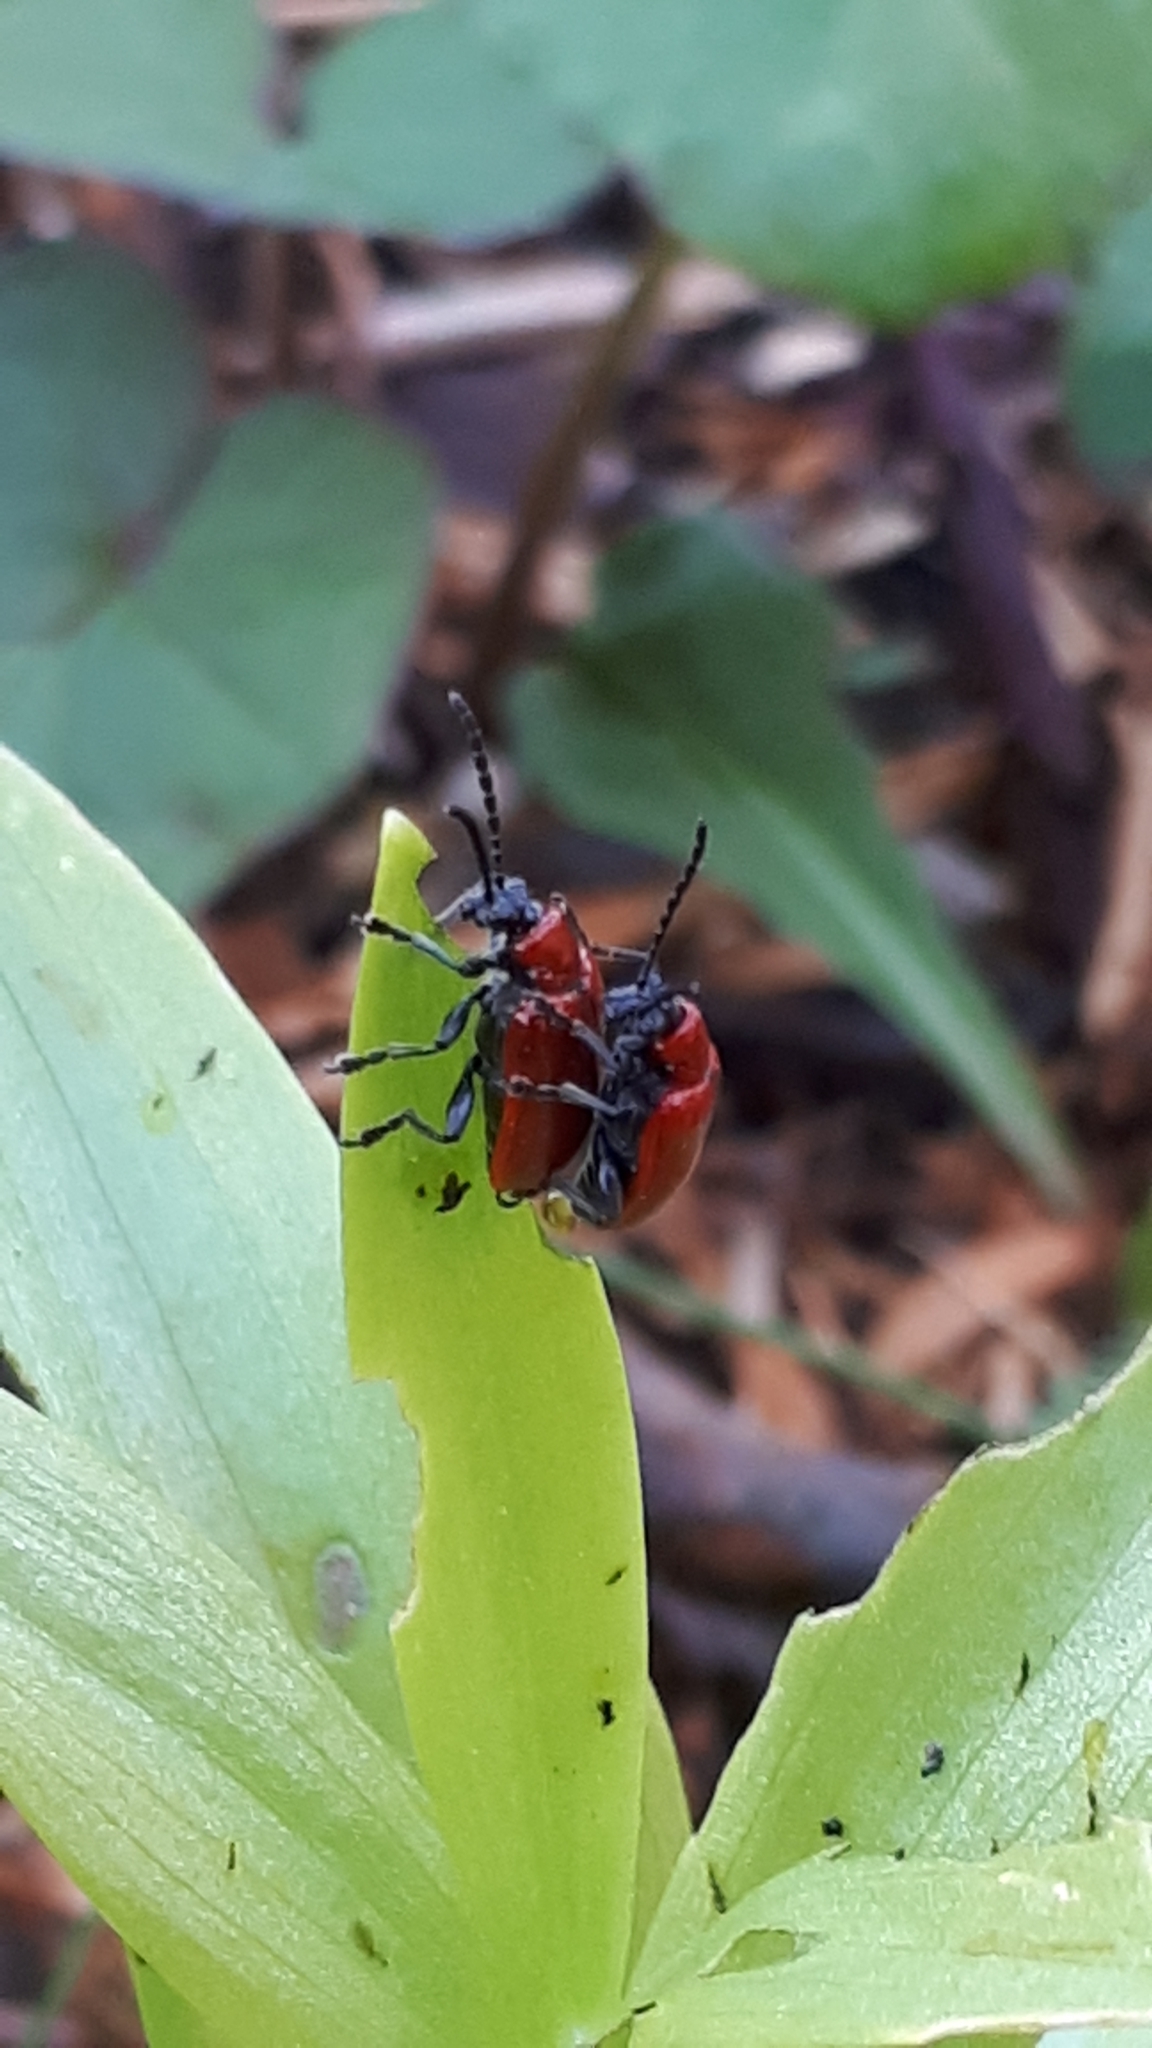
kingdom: Animalia
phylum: Arthropoda
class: Insecta
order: Coleoptera
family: Chrysomelidae
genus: Lilioceris
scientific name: Lilioceris lilii
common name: Lily beetle
